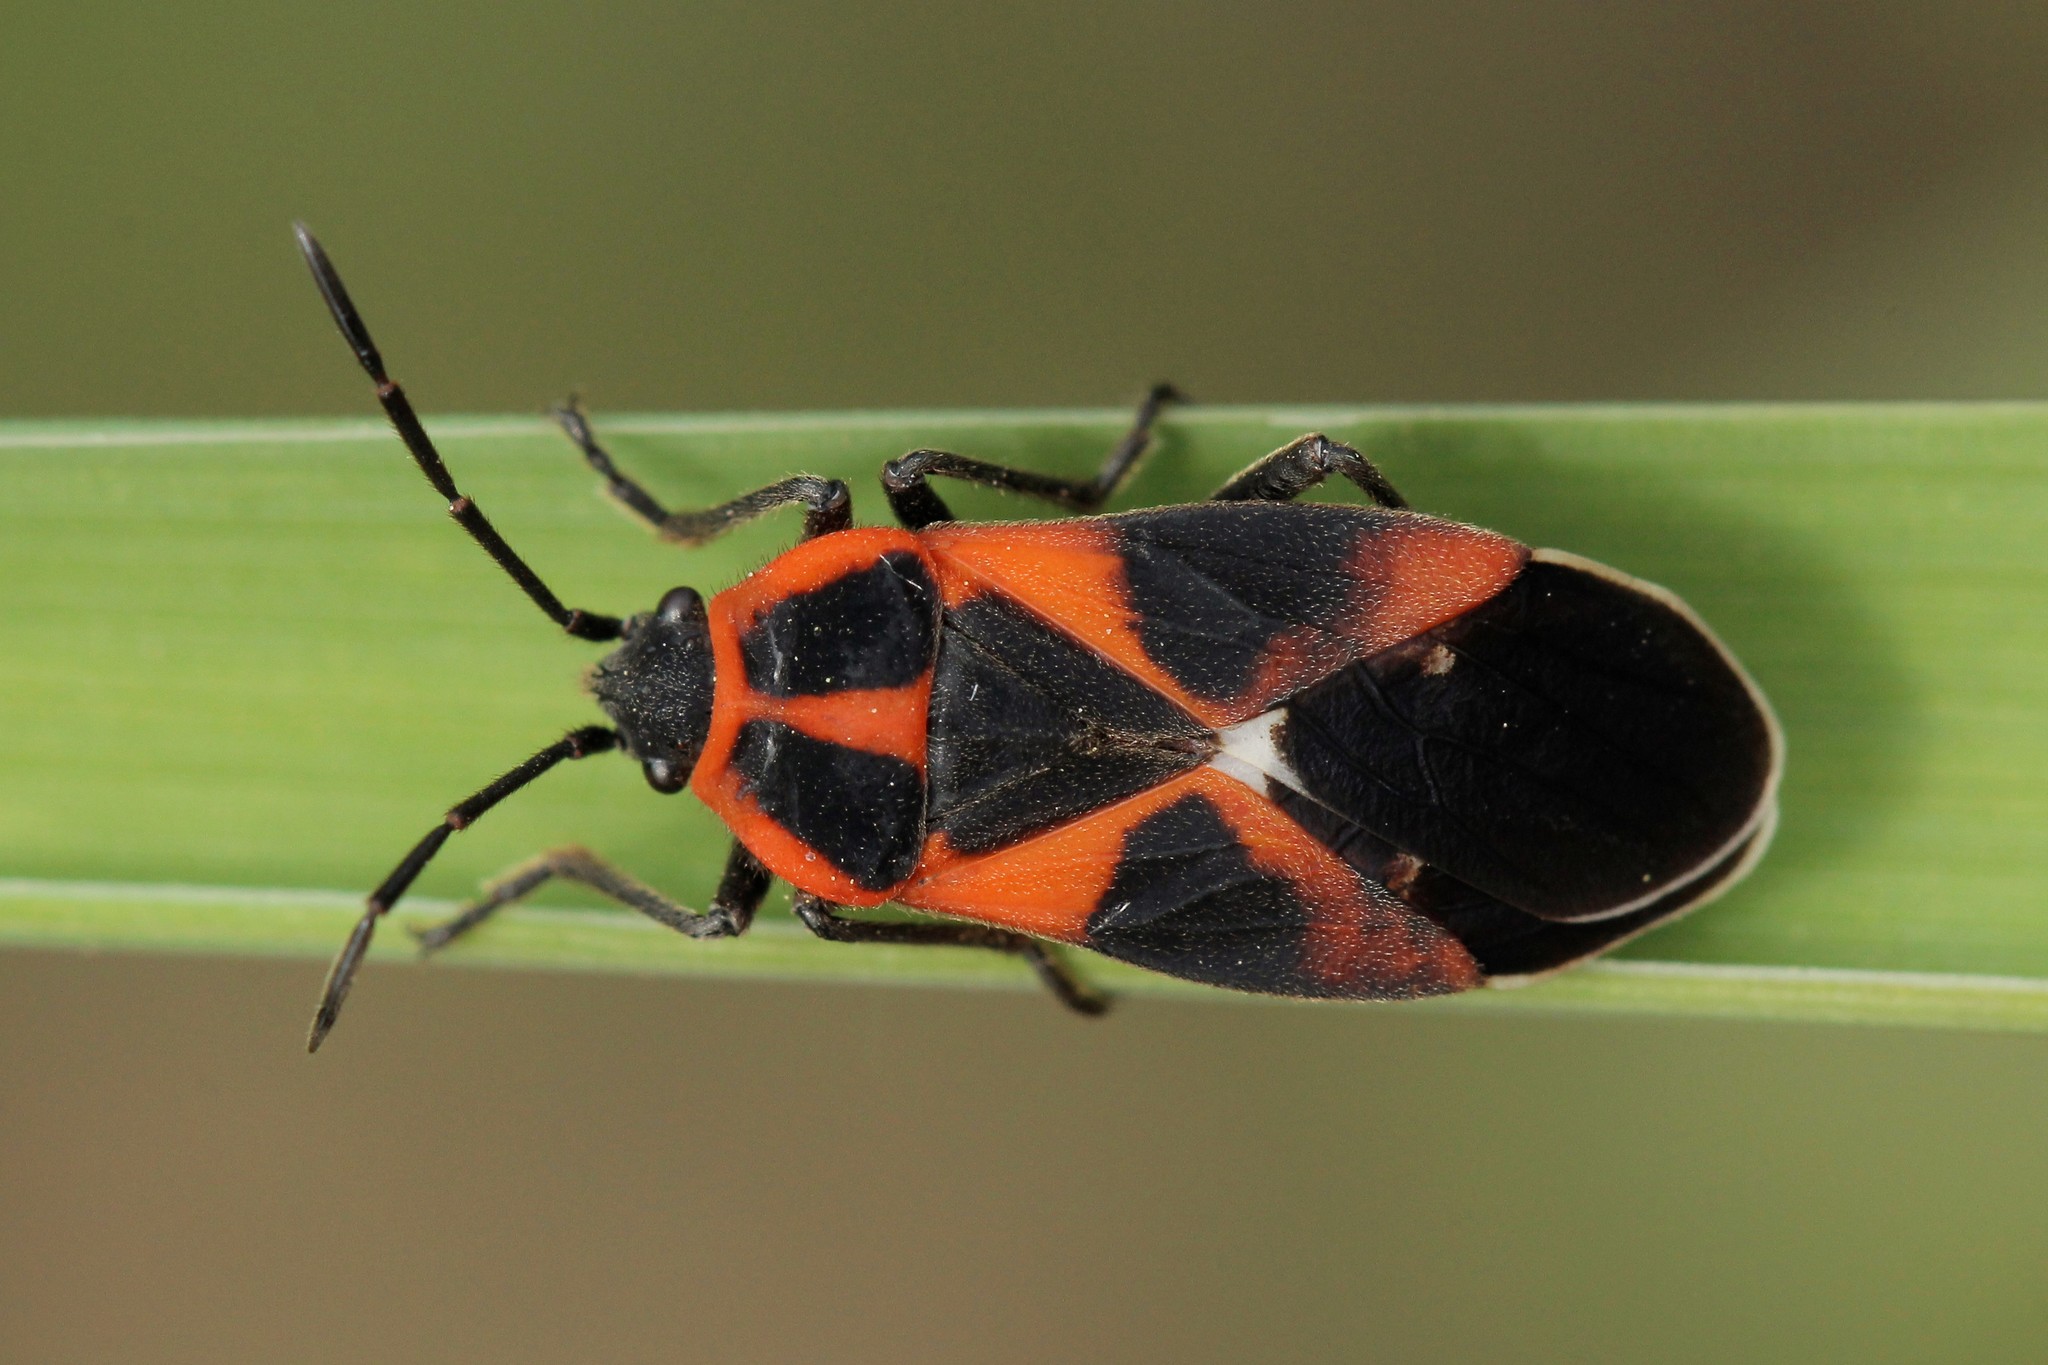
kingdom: Animalia
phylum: Arthropoda
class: Insecta
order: Hemiptera
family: Lygaeidae
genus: Tropidothorax
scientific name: Tropidothorax leucopterus
